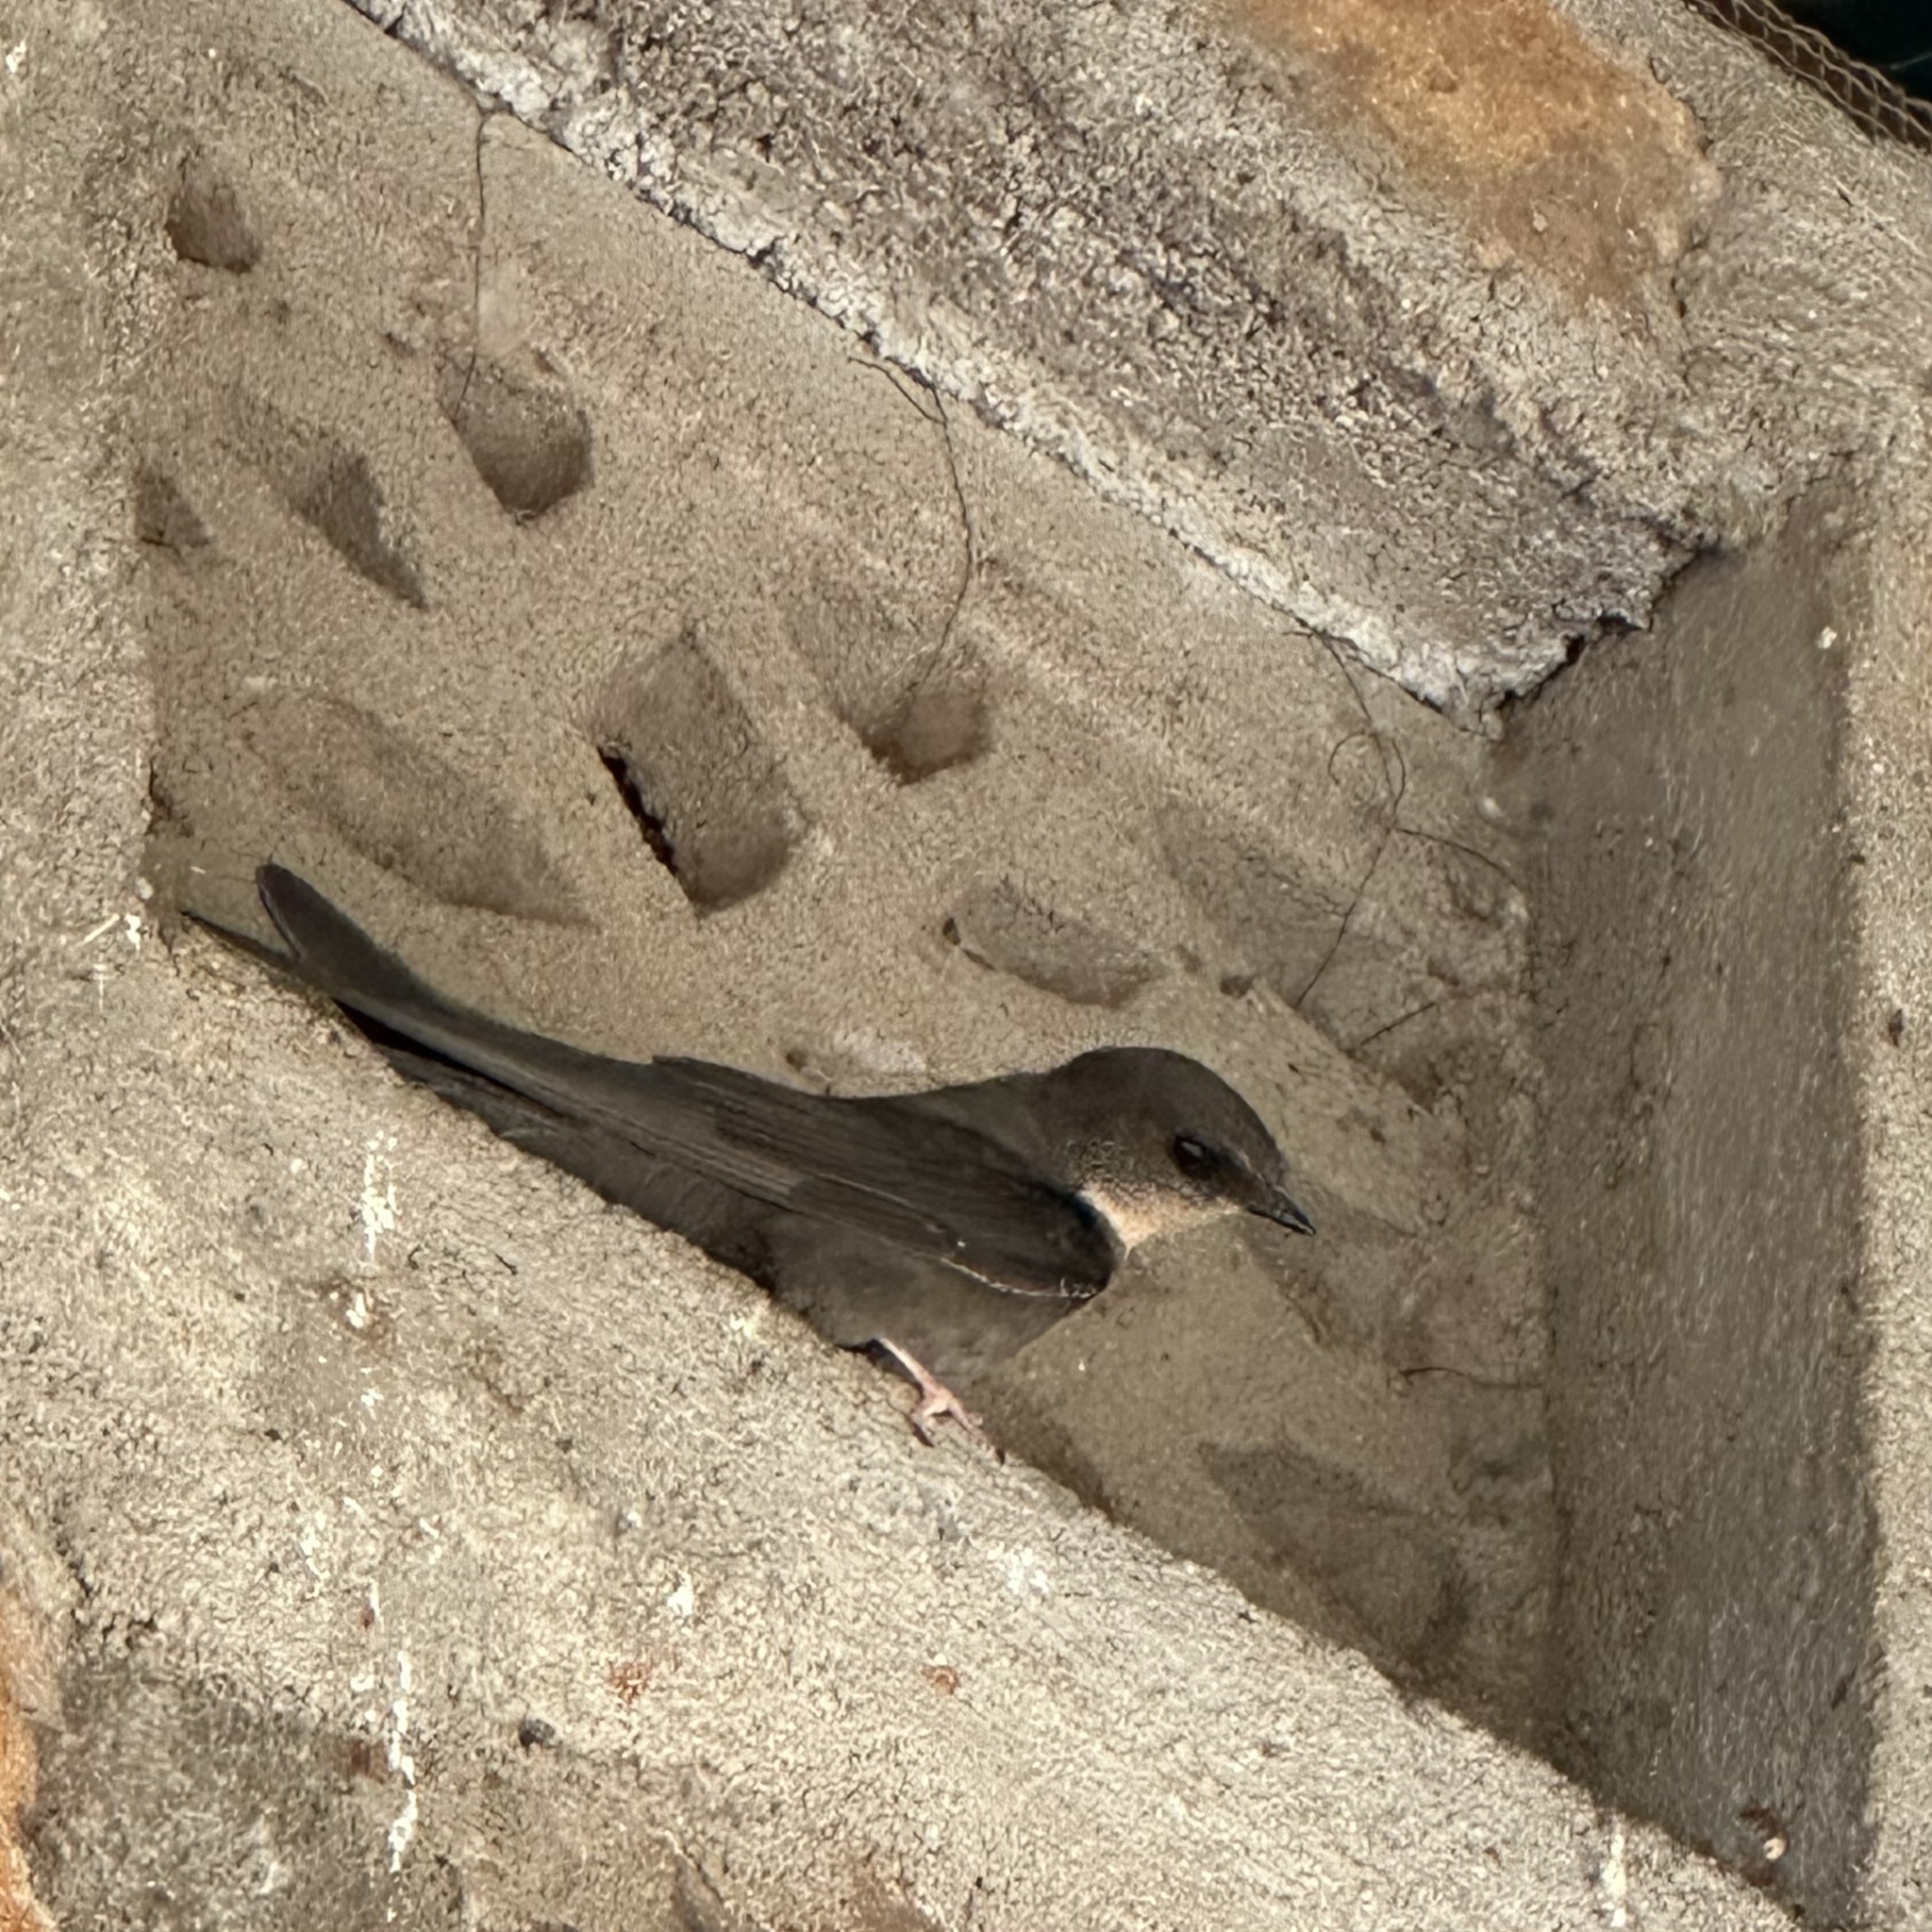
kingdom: Animalia
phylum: Chordata
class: Aves
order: Passeriformes
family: Hirundinidae
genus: Ptyonoprogne
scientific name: Ptyonoprogne fuligula
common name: Rock martin
